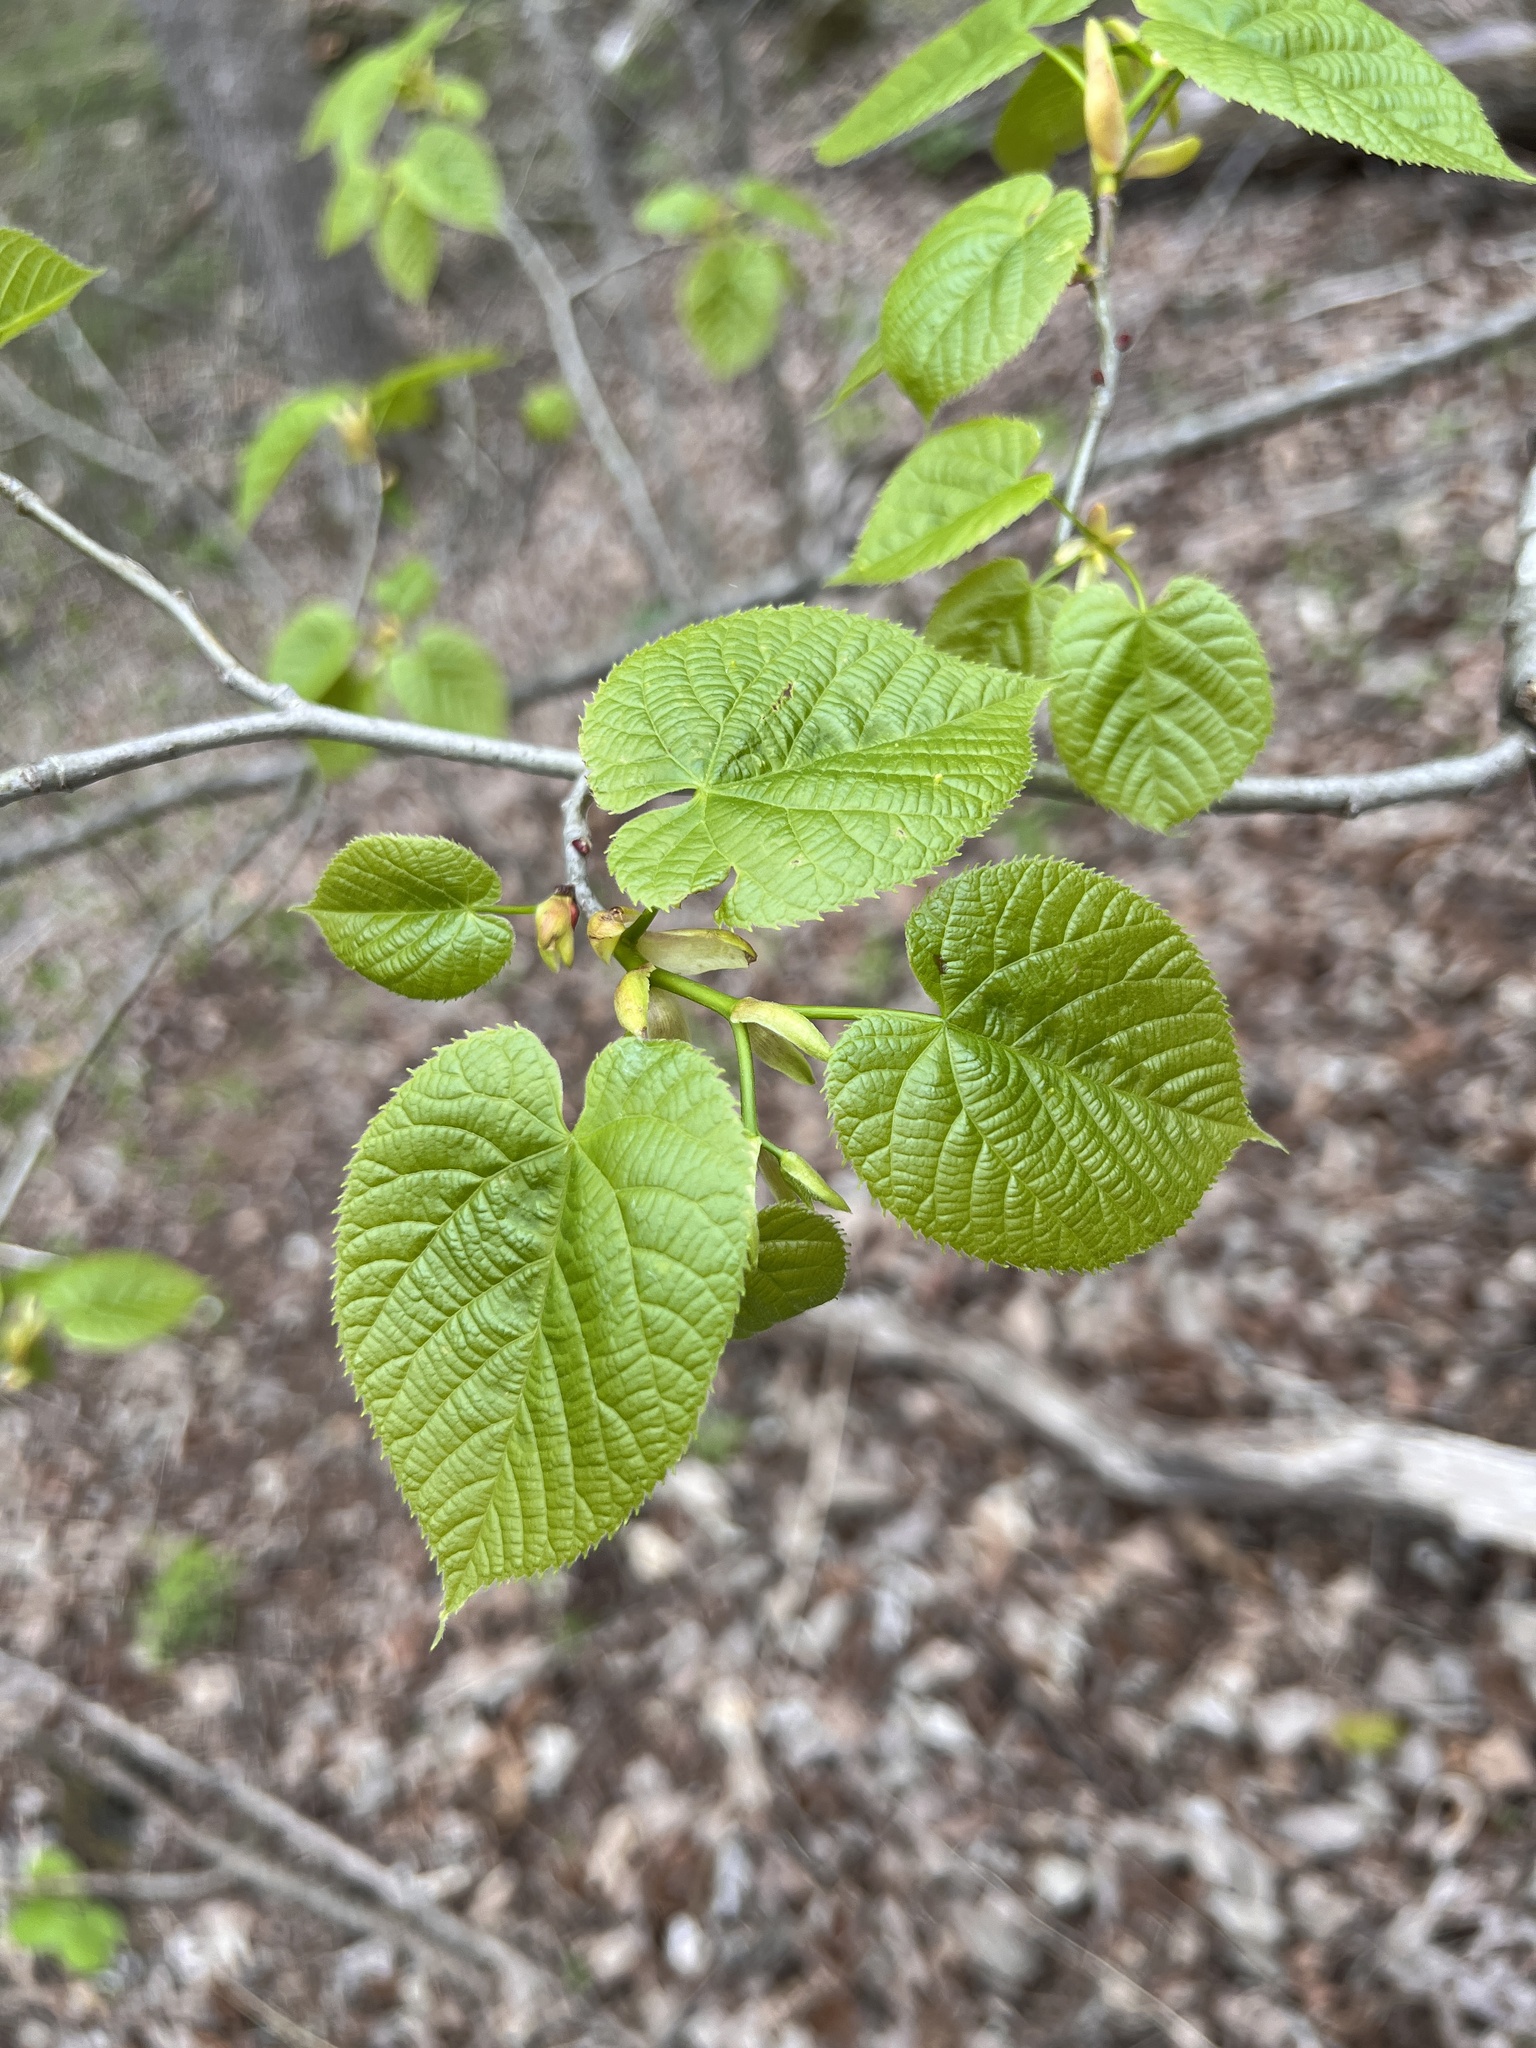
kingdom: Plantae
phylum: Tracheophyta
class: Magnoliopsida
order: Malvales
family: Malvaceae
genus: Tilia
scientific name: Tilia americana
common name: Basswood
